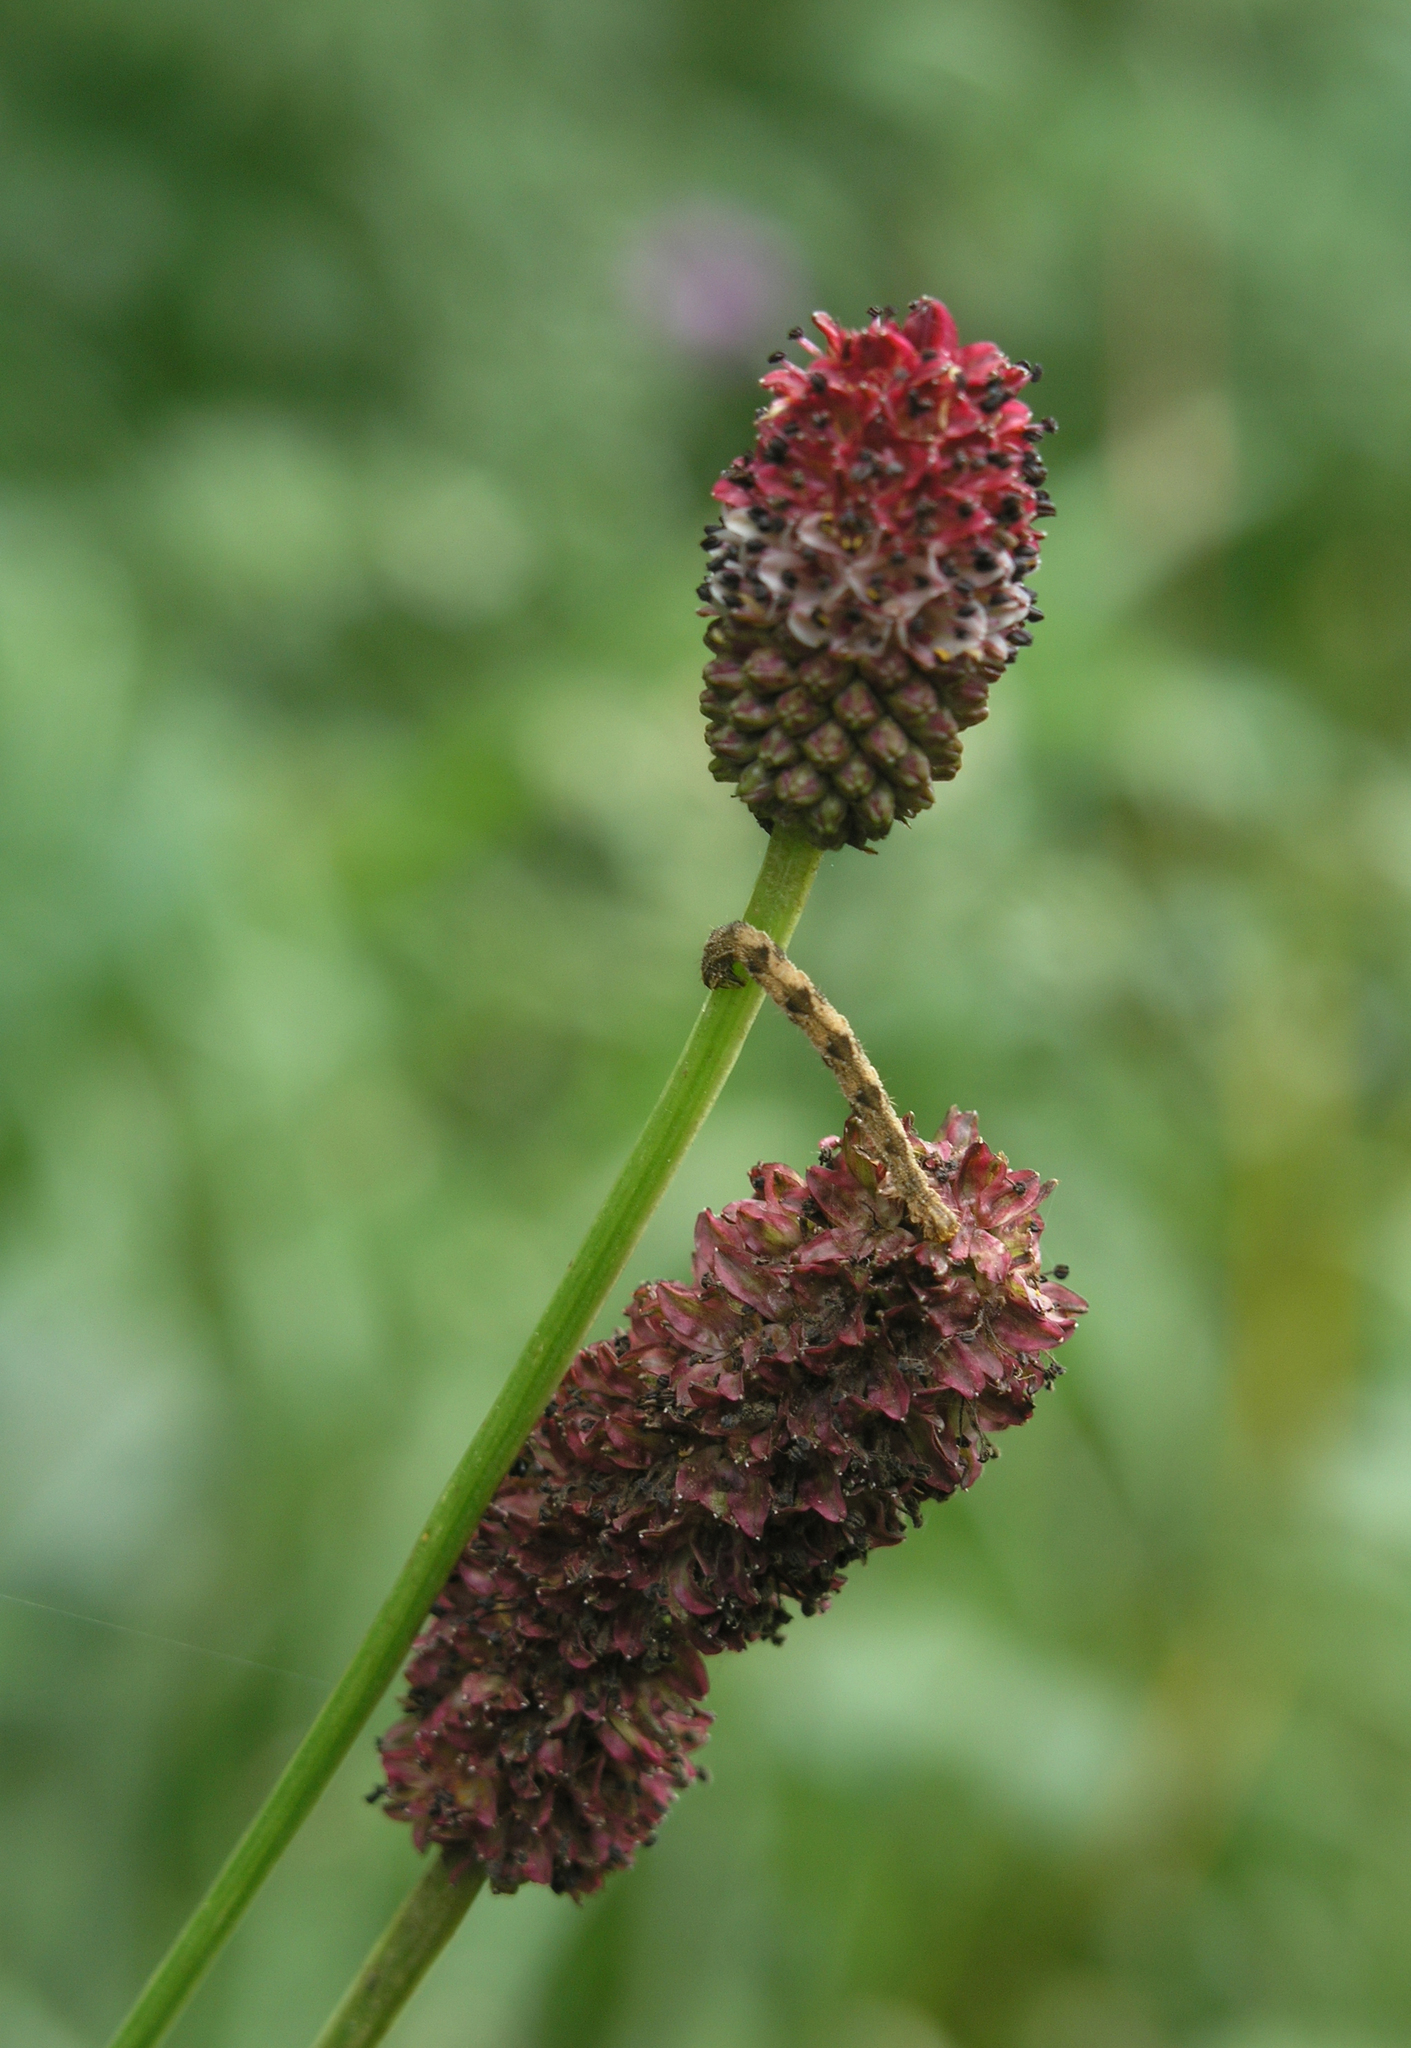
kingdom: Plantae
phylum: Tracheophyta
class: Magnoliopsida
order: Rosales
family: Rosaceae
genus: Sanguisorba
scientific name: Sanguisorba officinalis
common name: Great burnet
